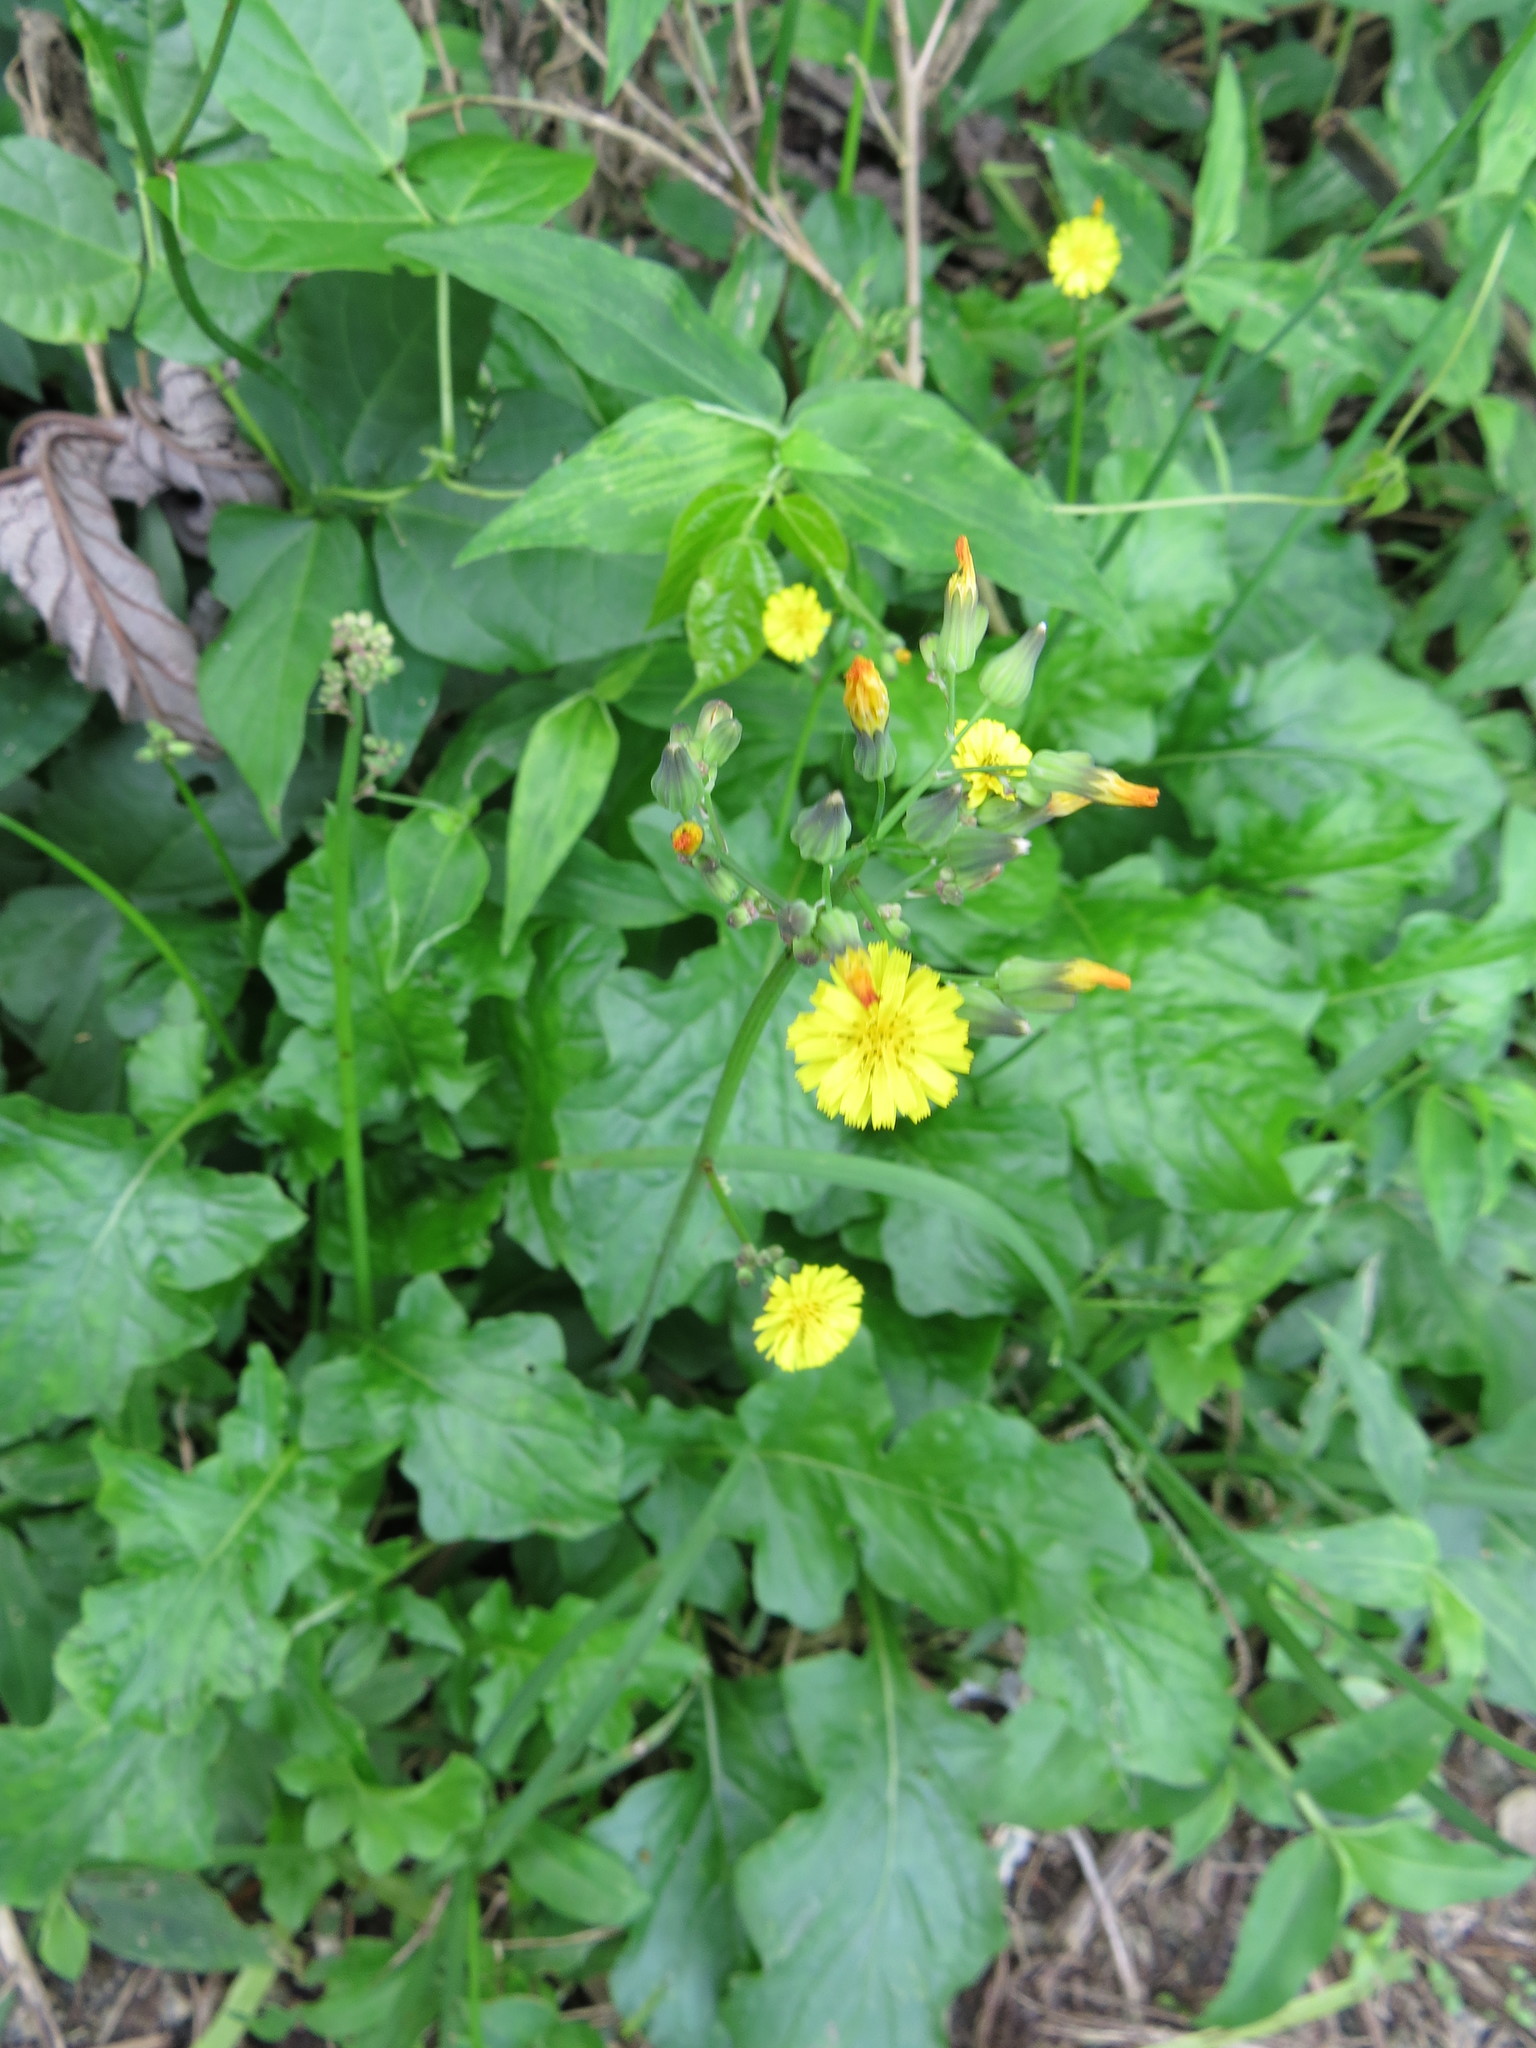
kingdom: Plantae
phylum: Tracheophyta
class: Magnoliopsida
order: Asterales
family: Asteraceae
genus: Youngia
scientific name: Youngia japonica
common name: Oriental false hawksbeard
